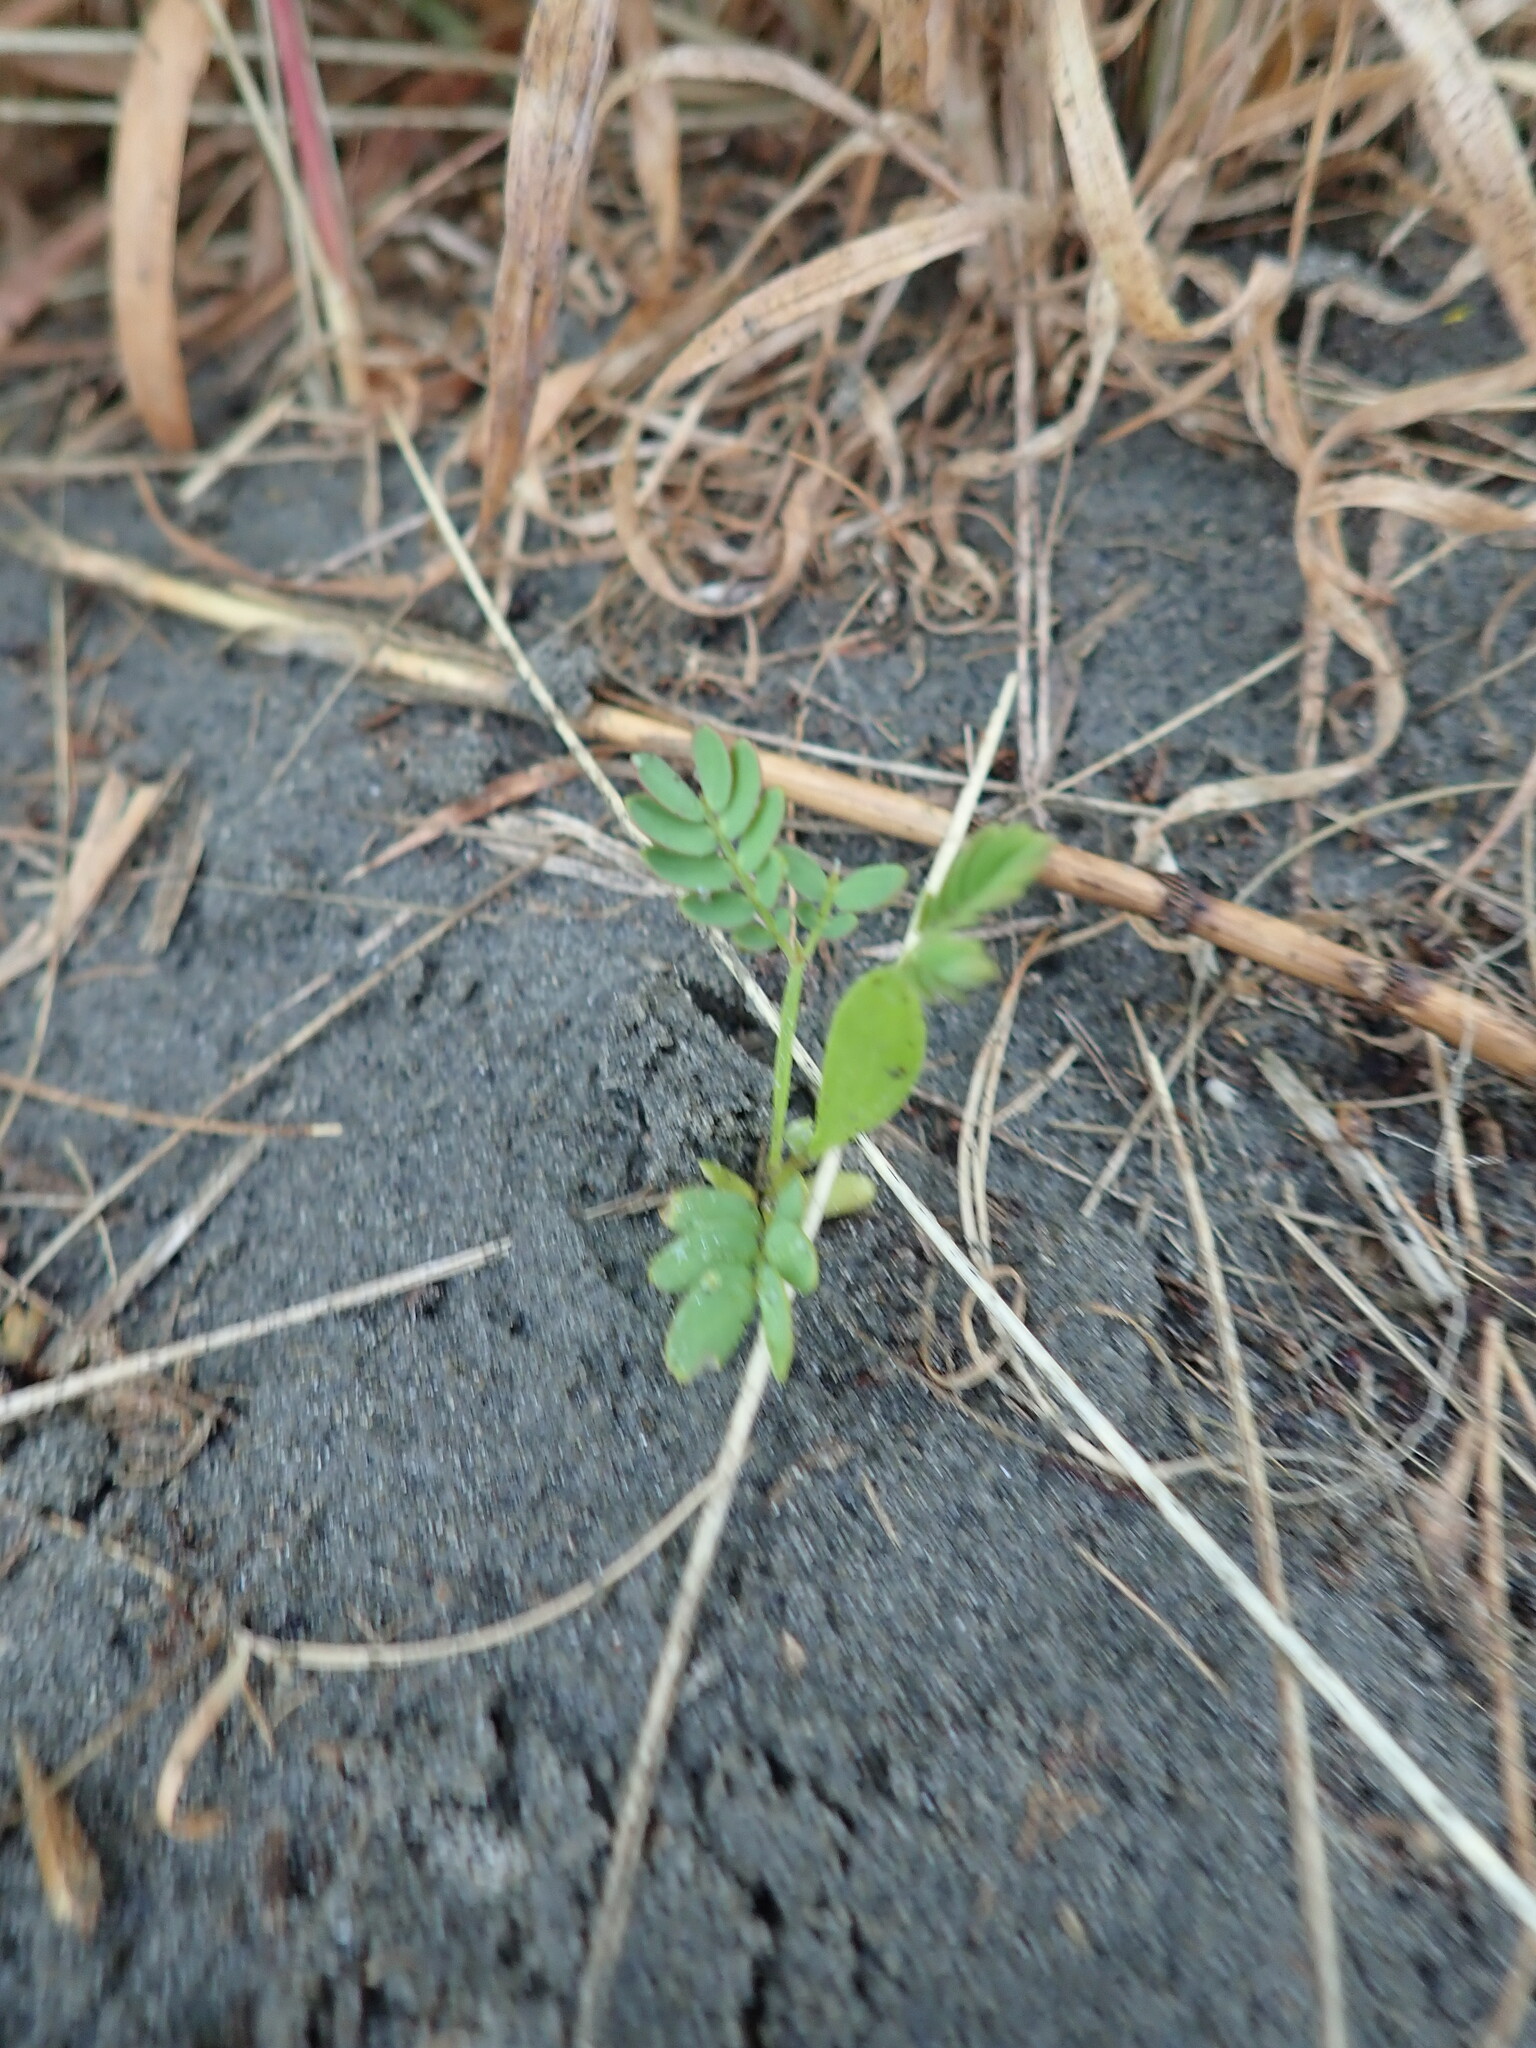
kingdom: Plantae
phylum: Tracheophyta
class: Magnoliopsida
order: Fabales
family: Fabaceae
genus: Acacia
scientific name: Acacia longifolia
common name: Sydney golden wattle
